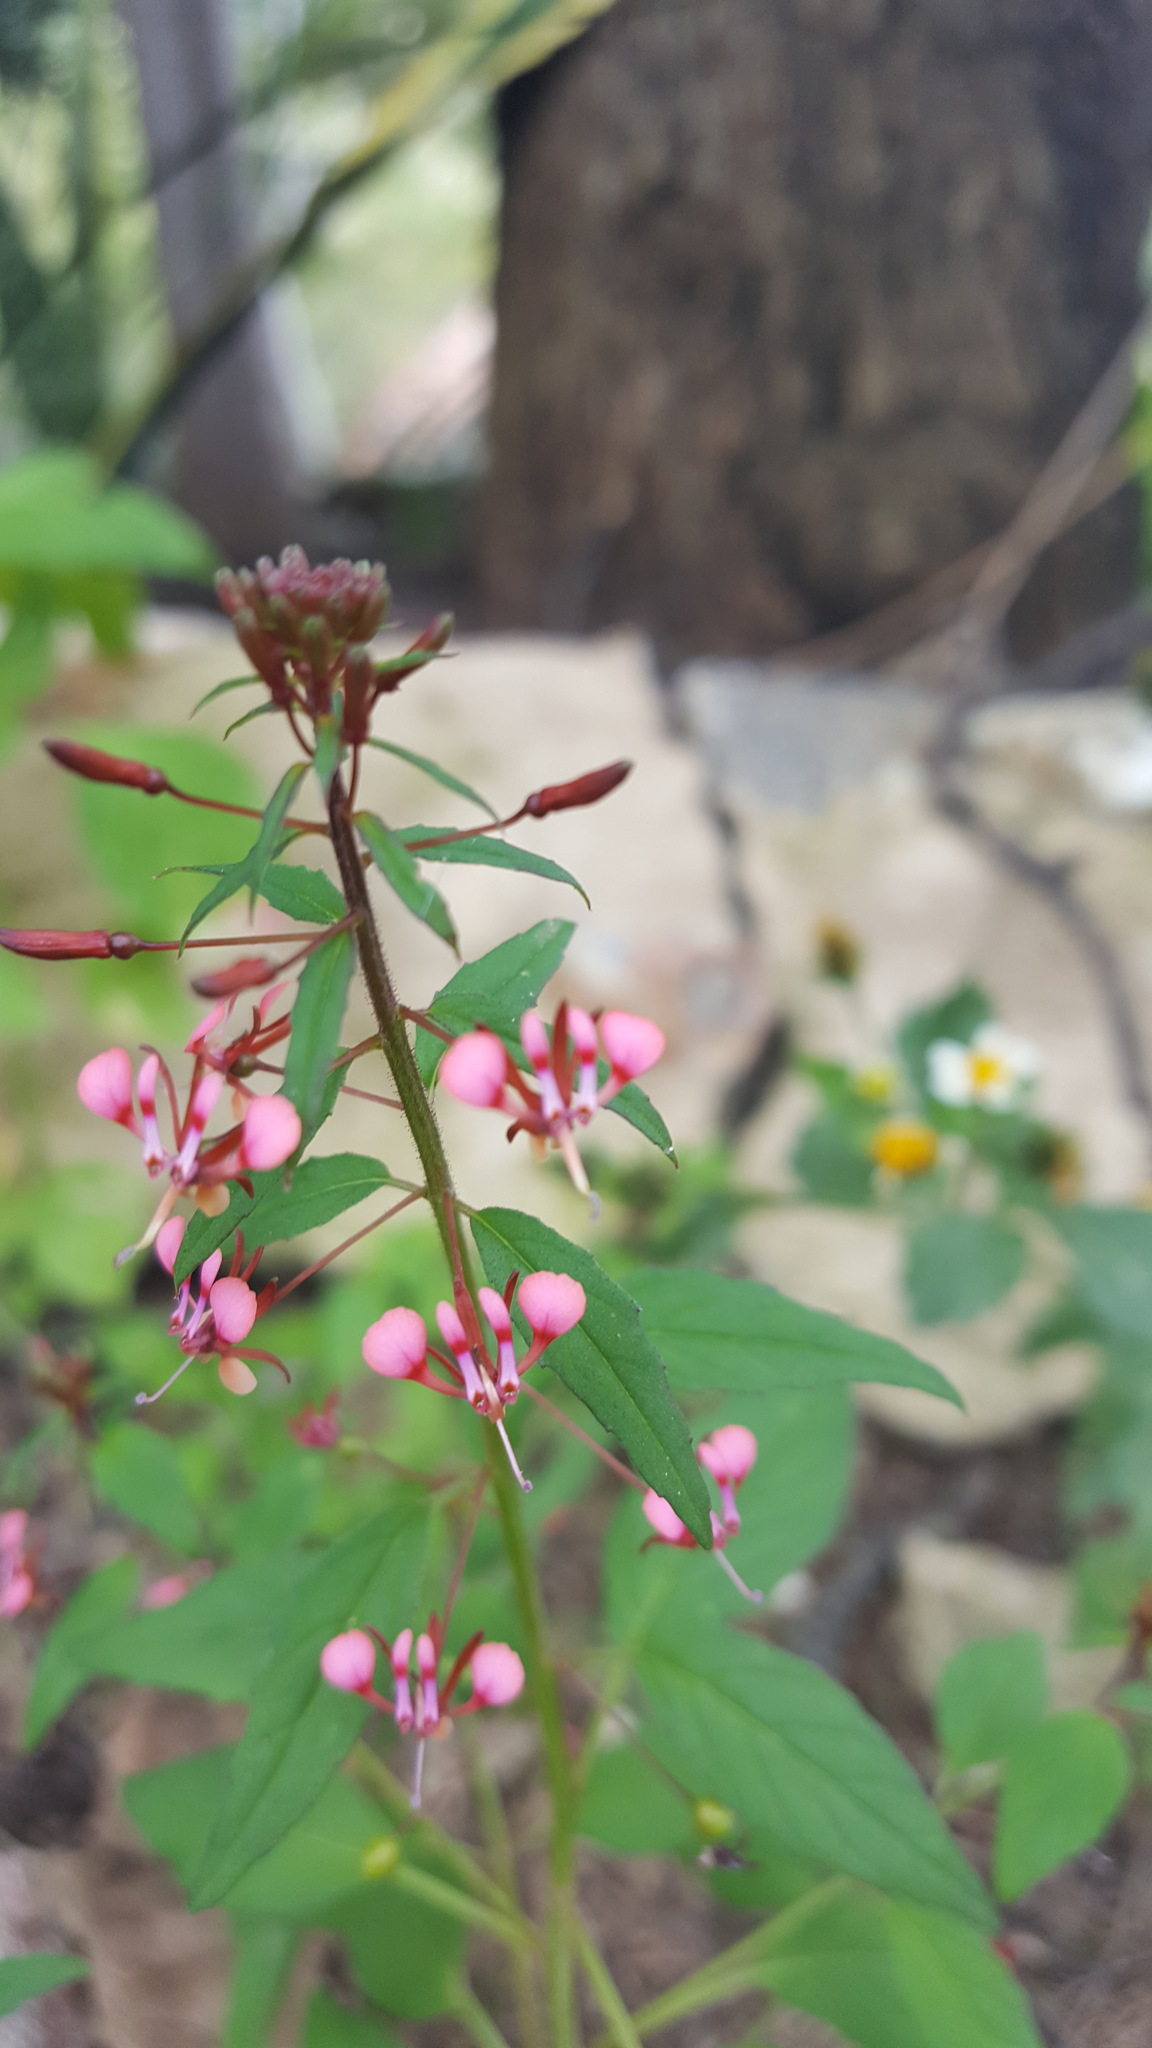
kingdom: Plantae
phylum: Tracheophyta
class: Magnoliopsida
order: Myrtales
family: Onagraceae
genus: Lopezia
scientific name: Lopezia racemosa
